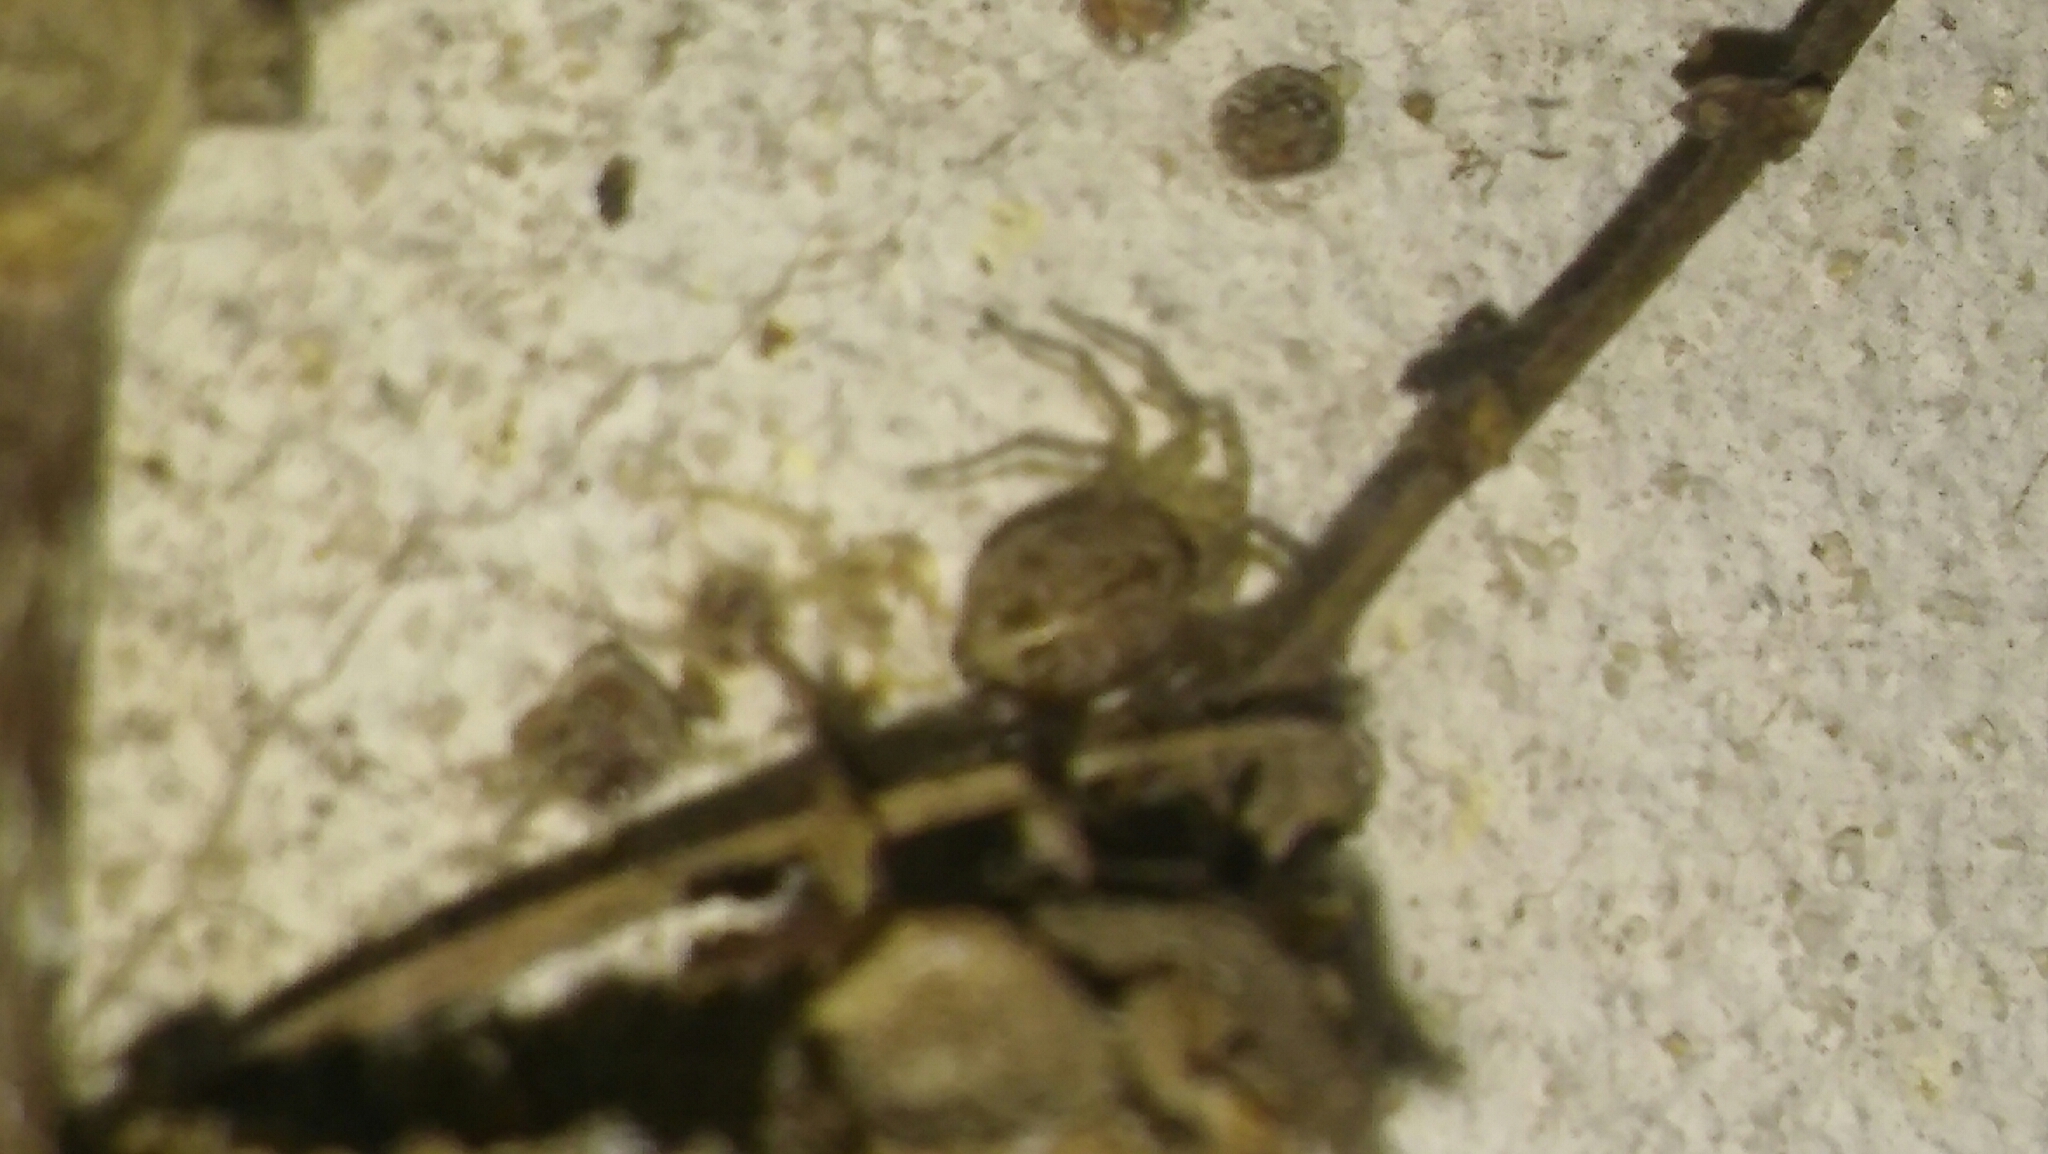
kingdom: Animalia
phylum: Arthropoda
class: Arachnida
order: Araneae
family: Oecobiidae
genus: Oecobius
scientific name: Oecobius navus
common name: Flatmesh weaver
